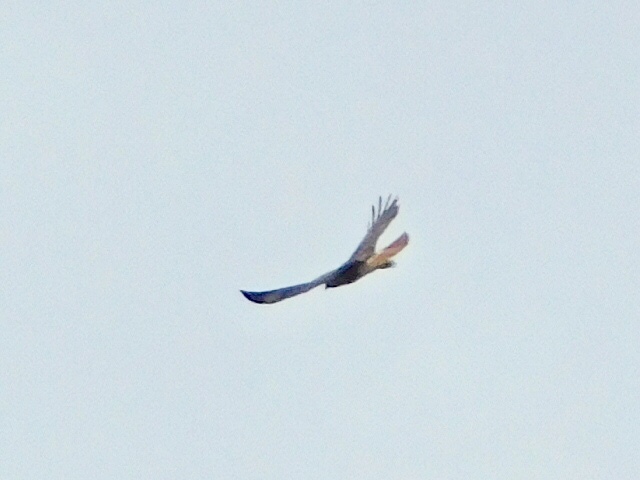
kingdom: Animalia
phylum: Chordata
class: Aves
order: Accipitriformes
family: Accipitridae
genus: Buteo
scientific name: Buteo jamaicensis
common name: Red-tailed hawk
